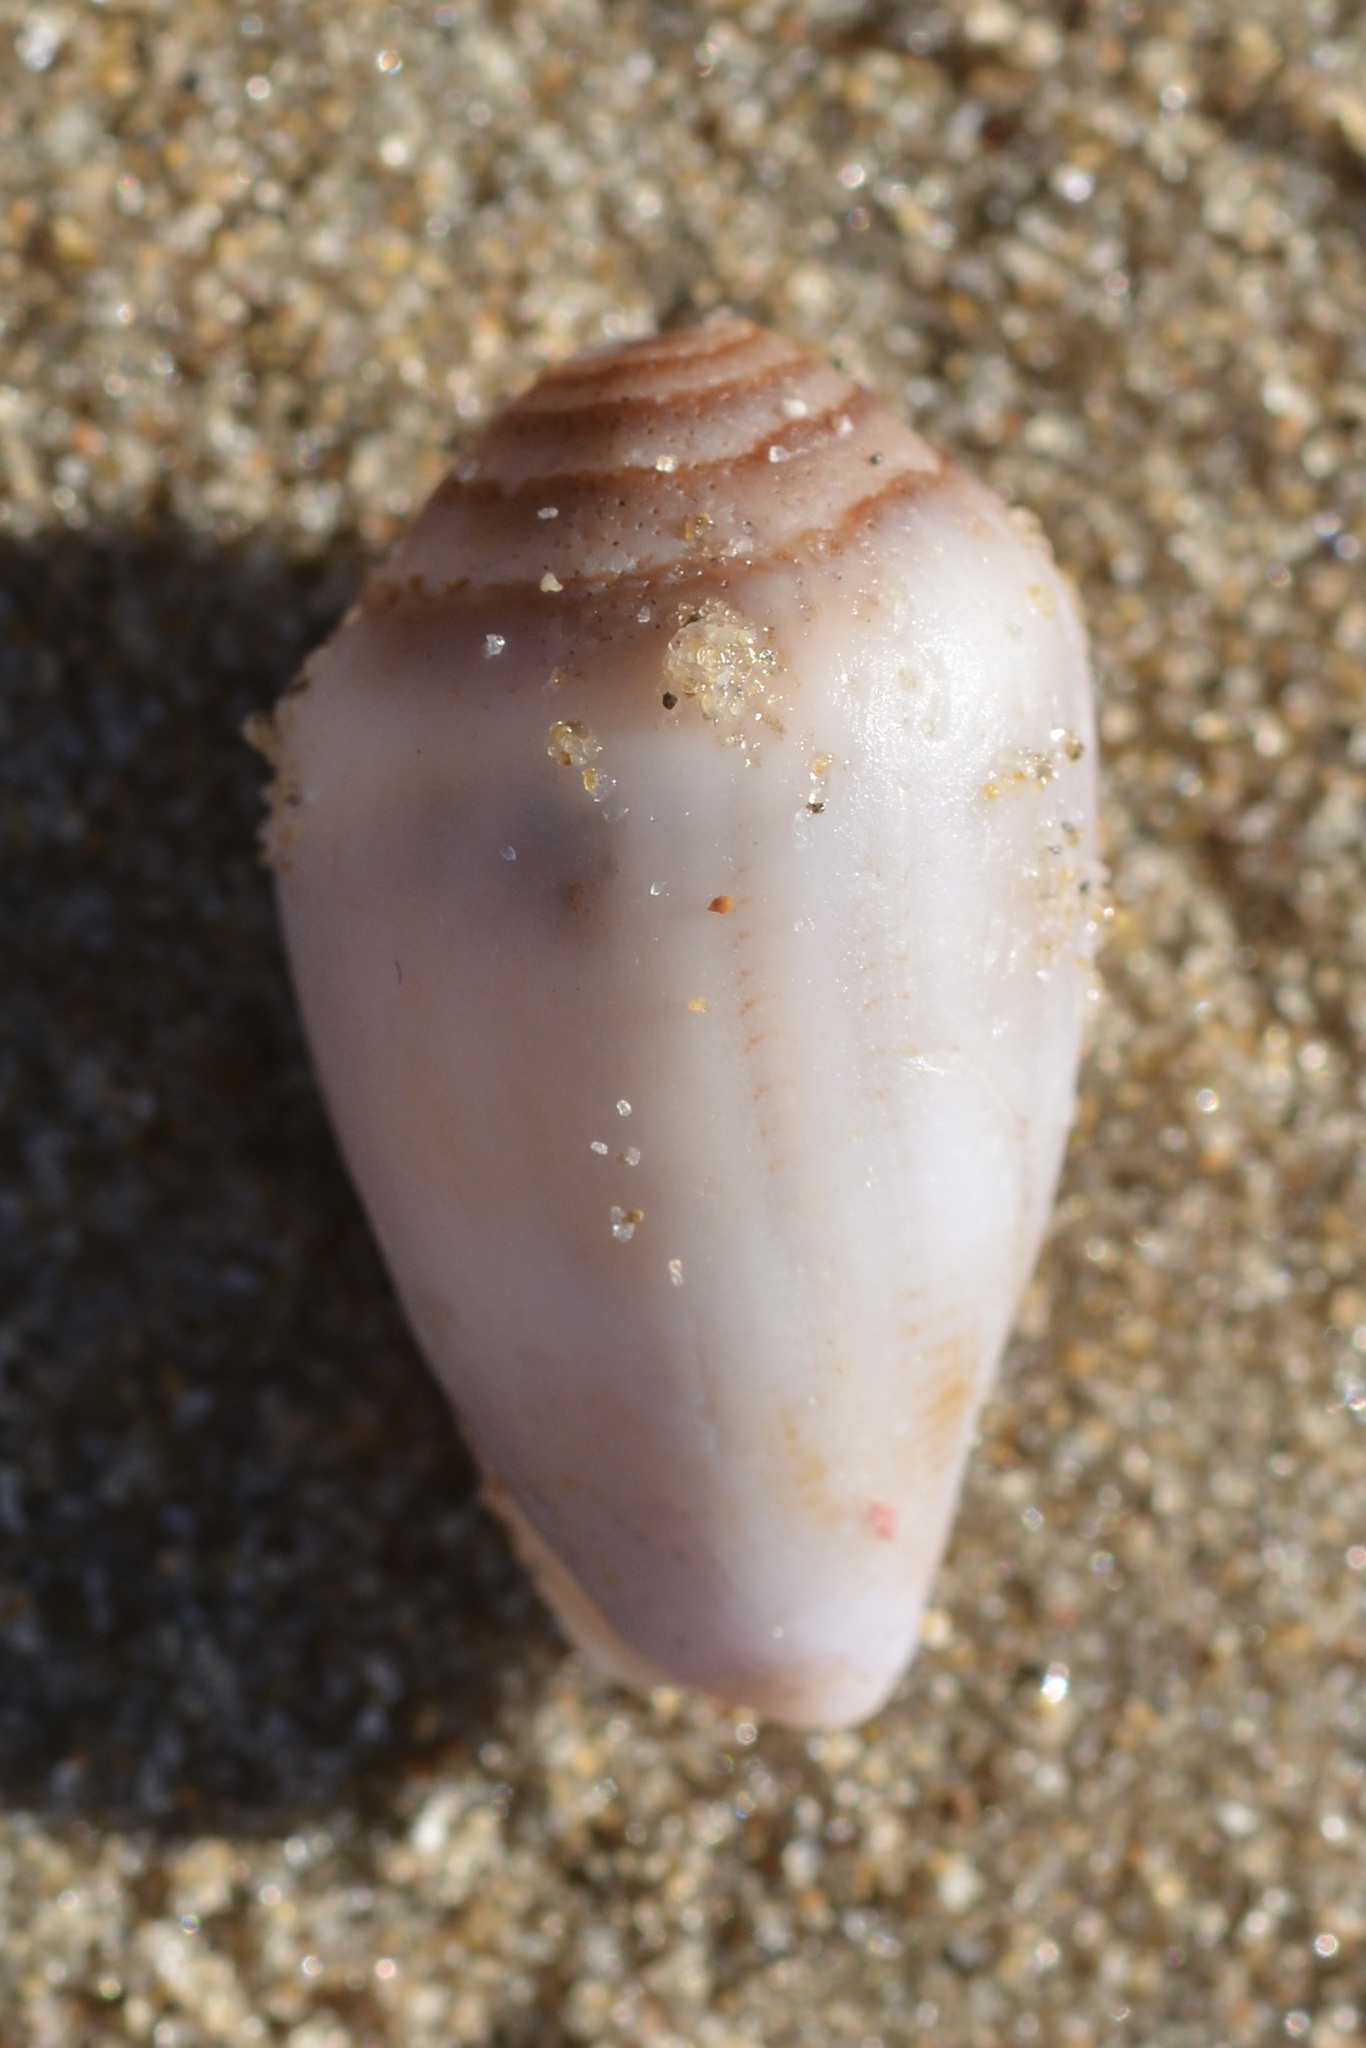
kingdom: Animalia
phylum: Mollusca
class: Gastropoda
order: Neogastropoda
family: Conidae
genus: Californiconus
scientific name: Californiconus californicus
